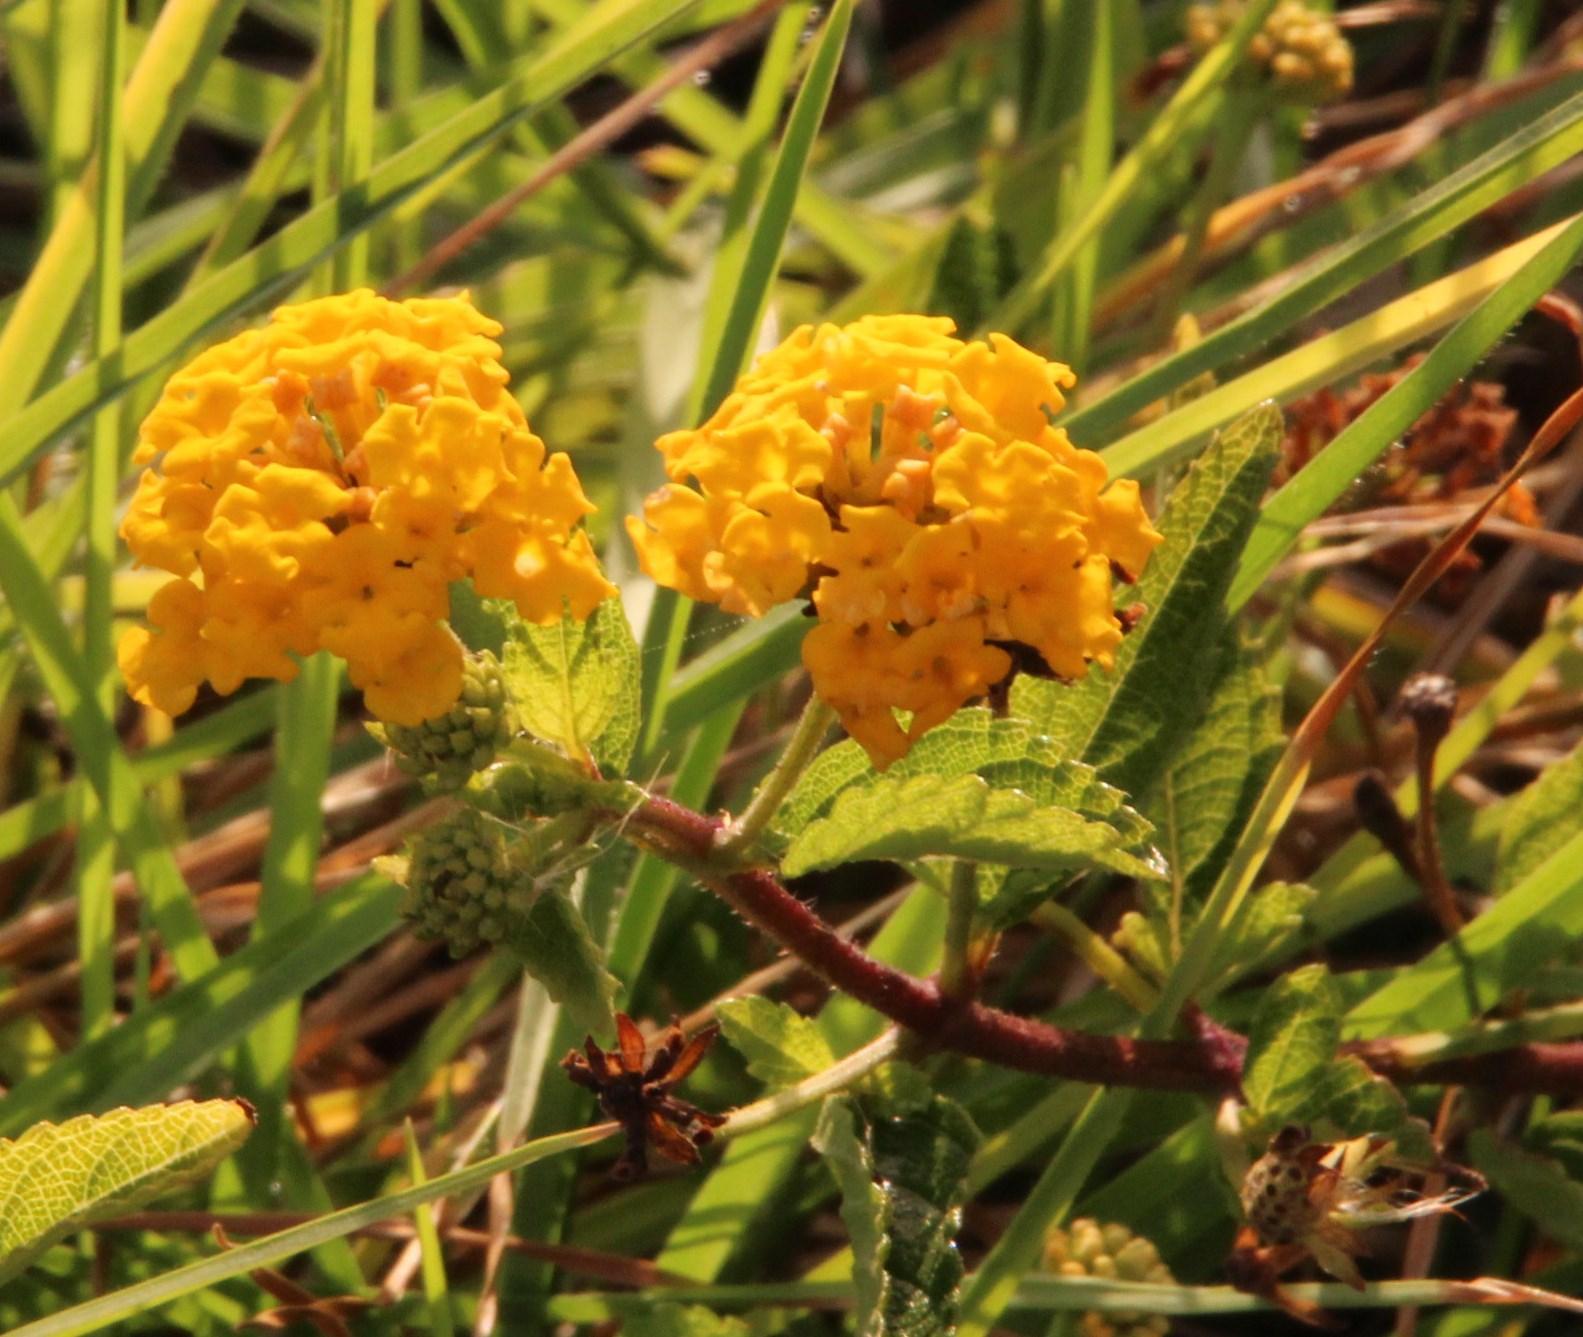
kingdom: Plantae
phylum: Tracheophyta
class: Magnoliopsida
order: Lamiales
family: Verbenaceae
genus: Lantana
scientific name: Lantana polyacantha
